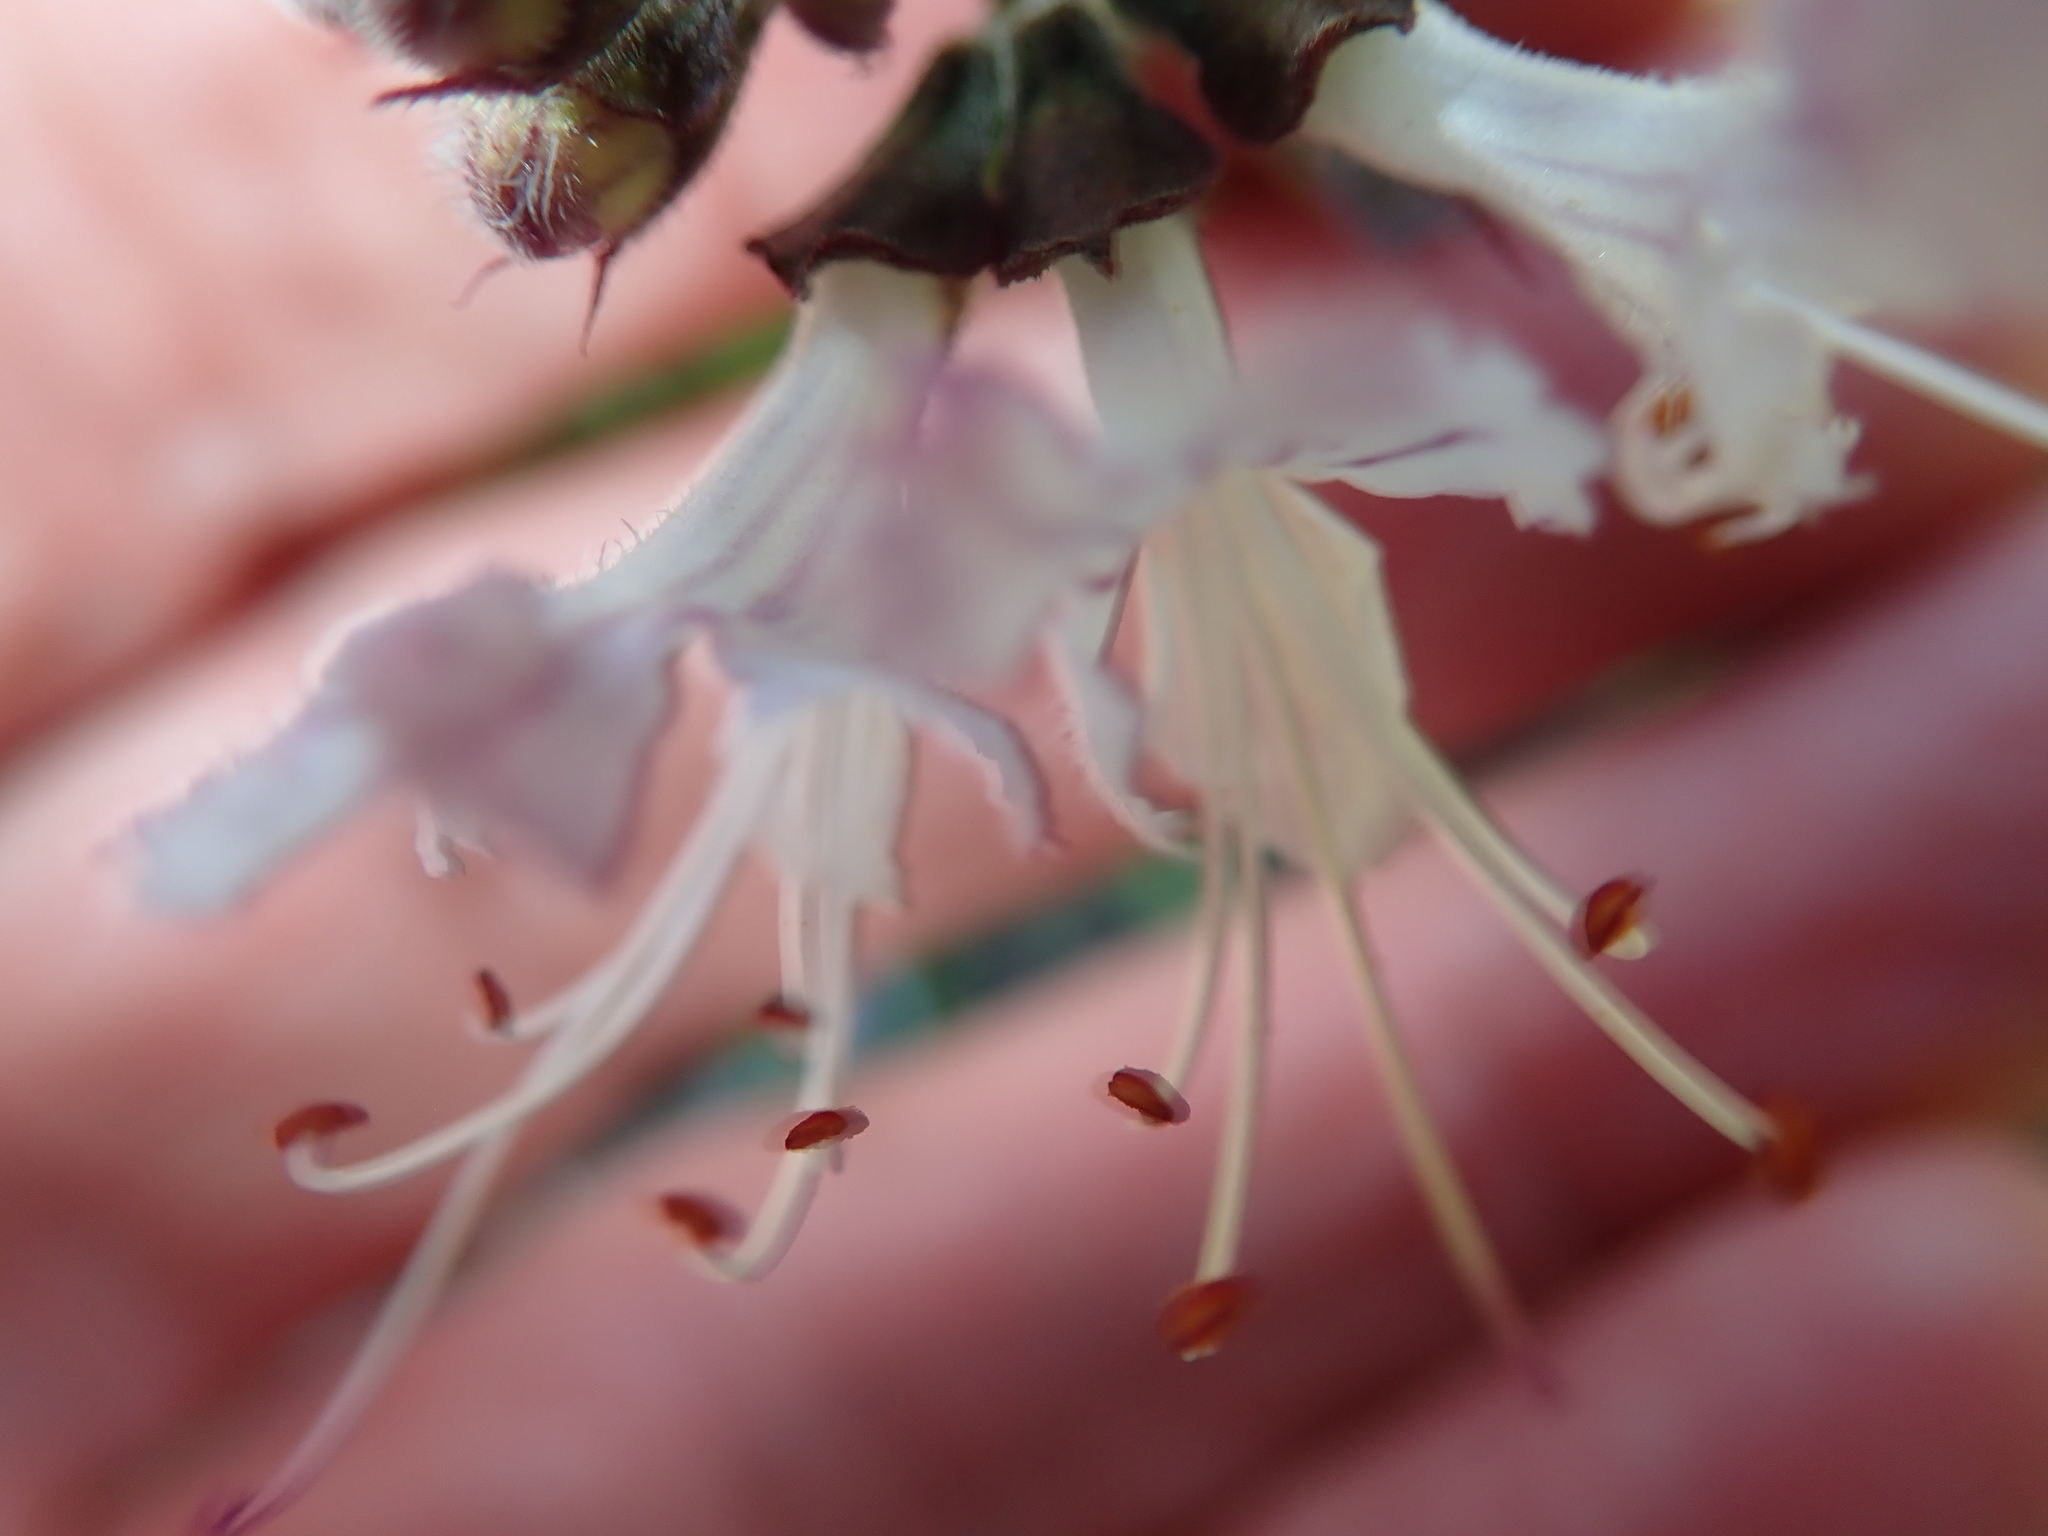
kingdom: Plantae
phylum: Tracheophyta
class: Magnoliopsida
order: Lamiales
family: Lamiaceae
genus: Ocimum
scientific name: Ocimum obovatum
